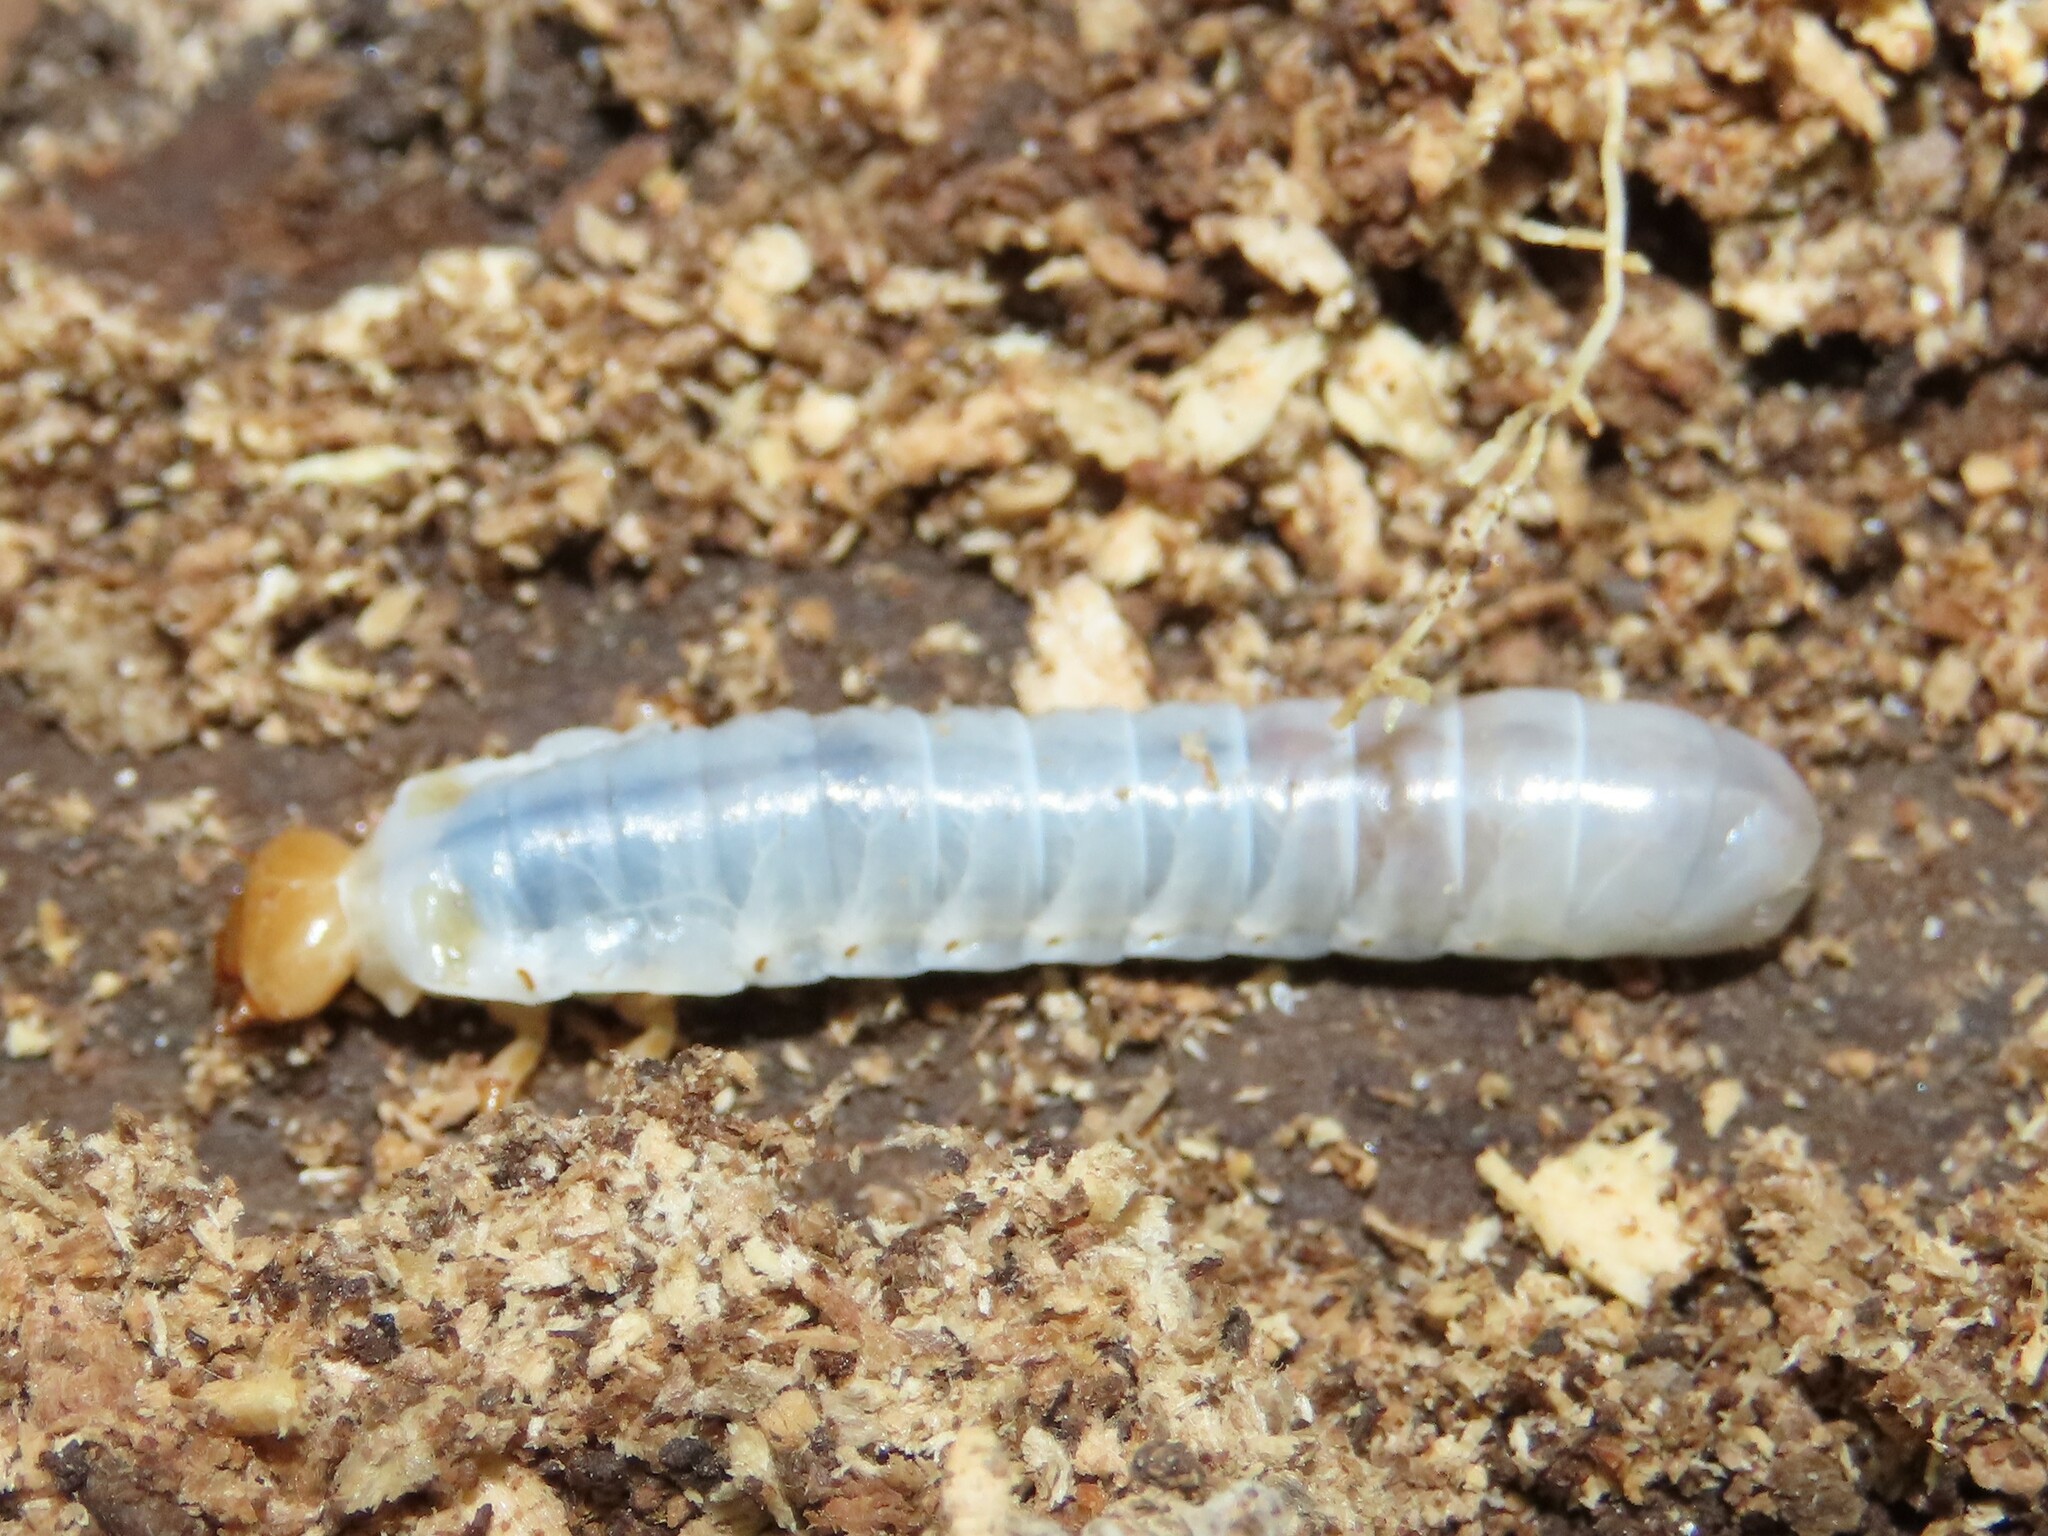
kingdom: Animalia
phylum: Arthropoda
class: Insecta
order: Coleoptera
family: Passalidae
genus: Odontotaenius
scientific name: Odontotaenius disjunctus
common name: Patent leather beetle
